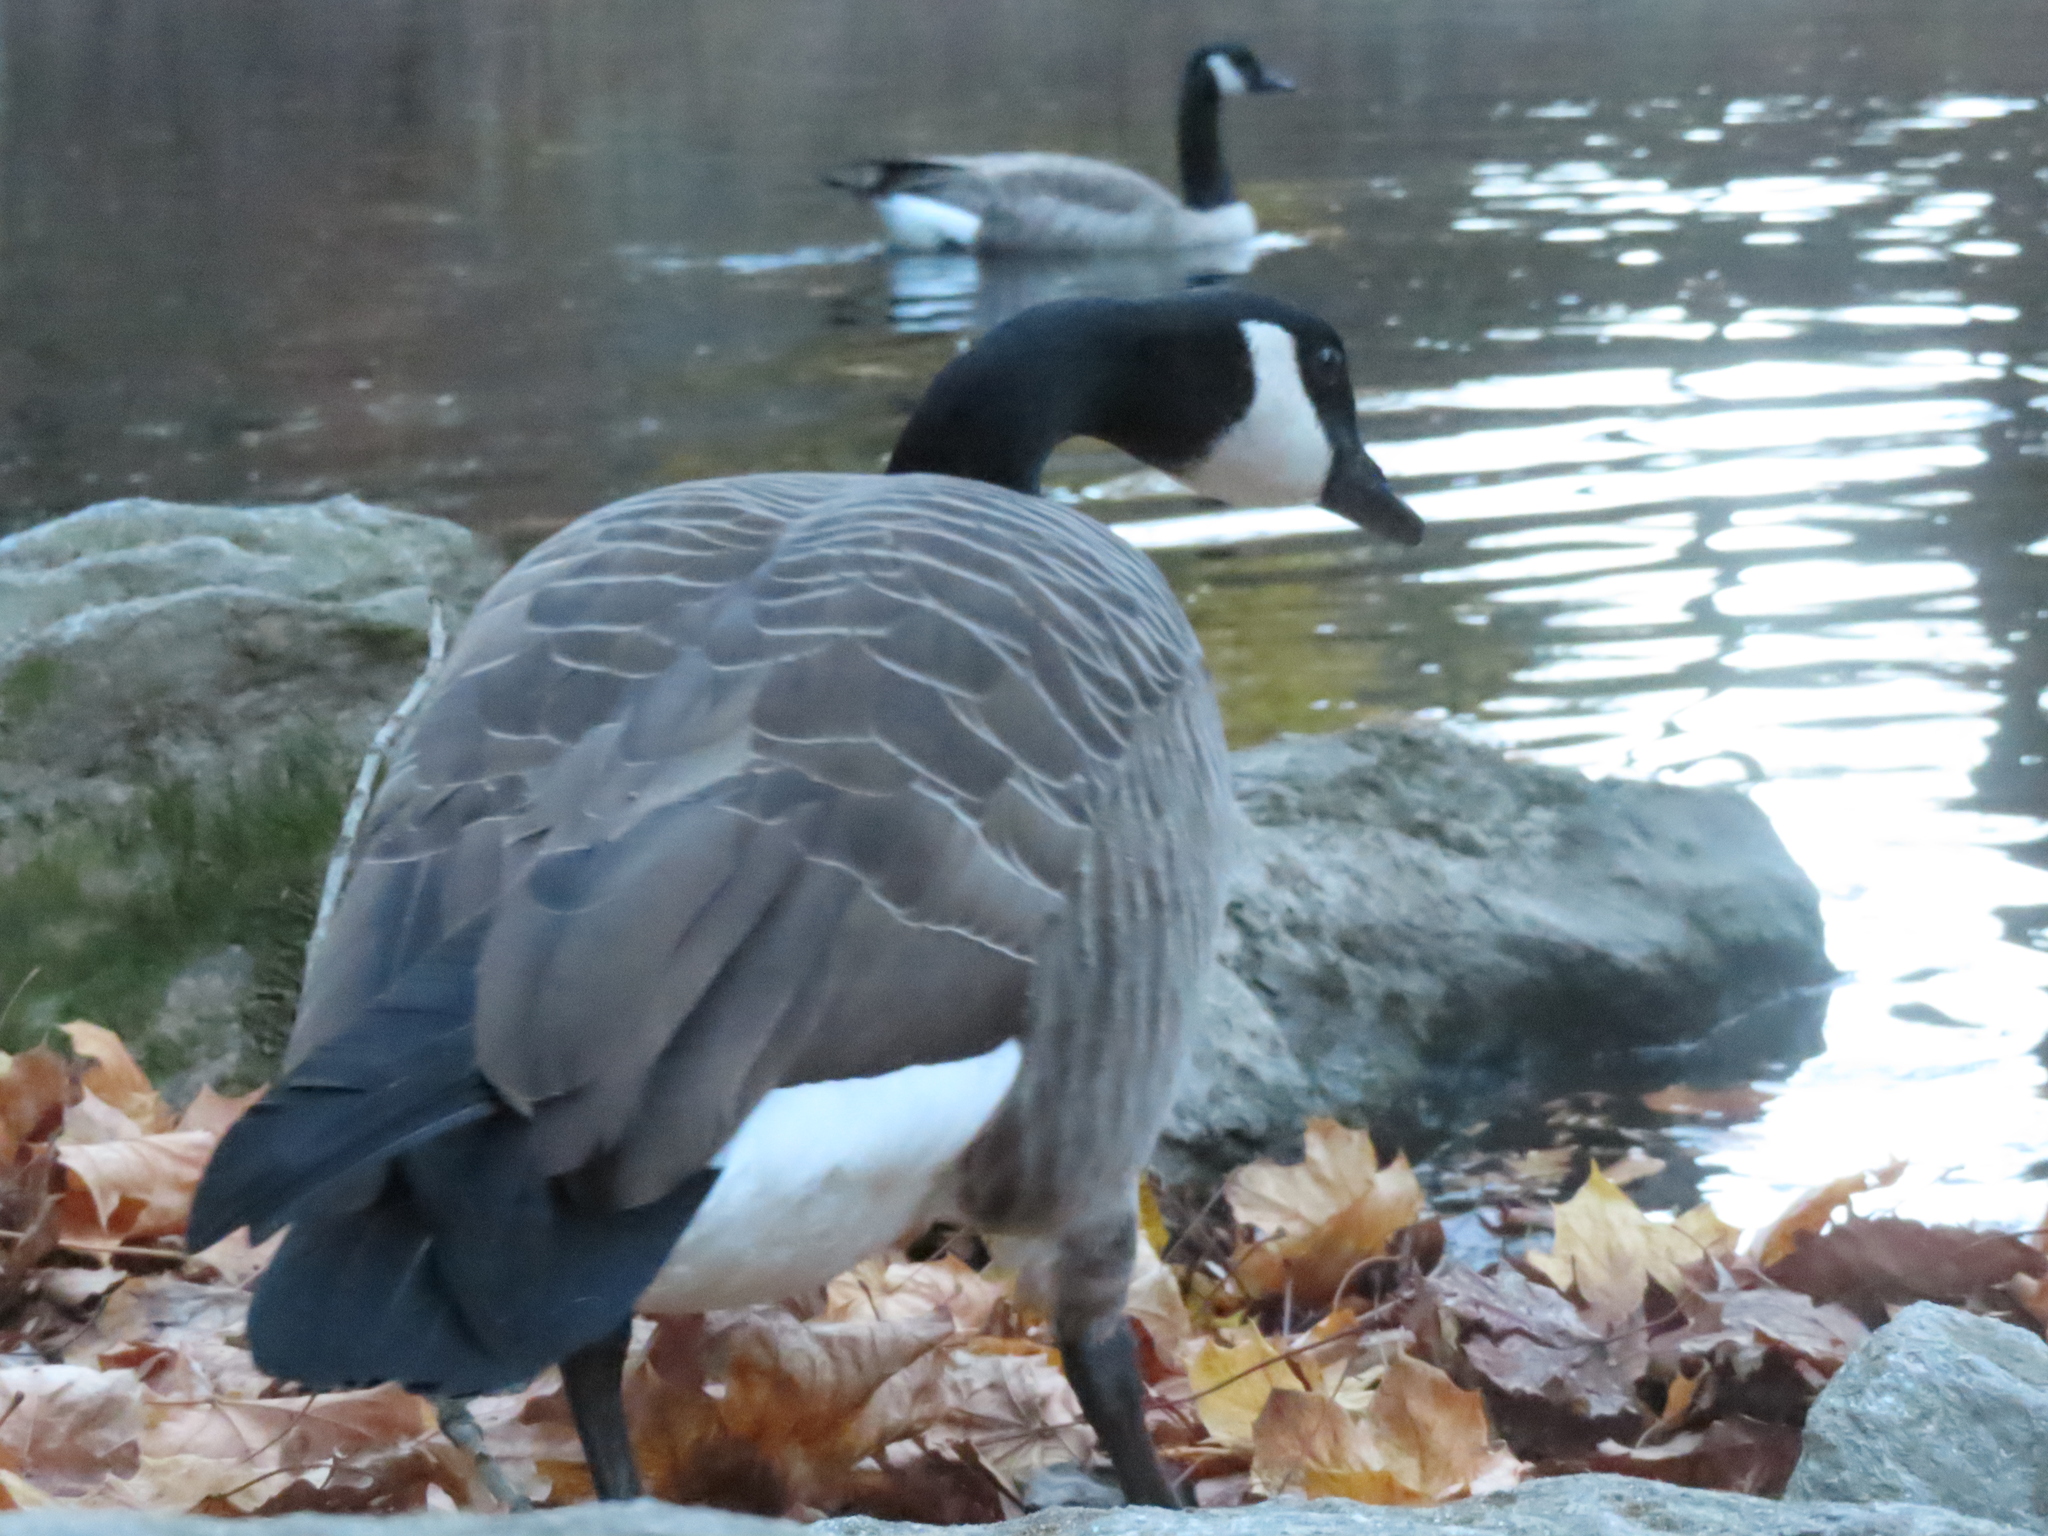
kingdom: Animalia
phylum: Chordata
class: Aves
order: Anseriformes
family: Anatidae
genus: Branta
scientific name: Branta canadensis
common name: Canada goose
